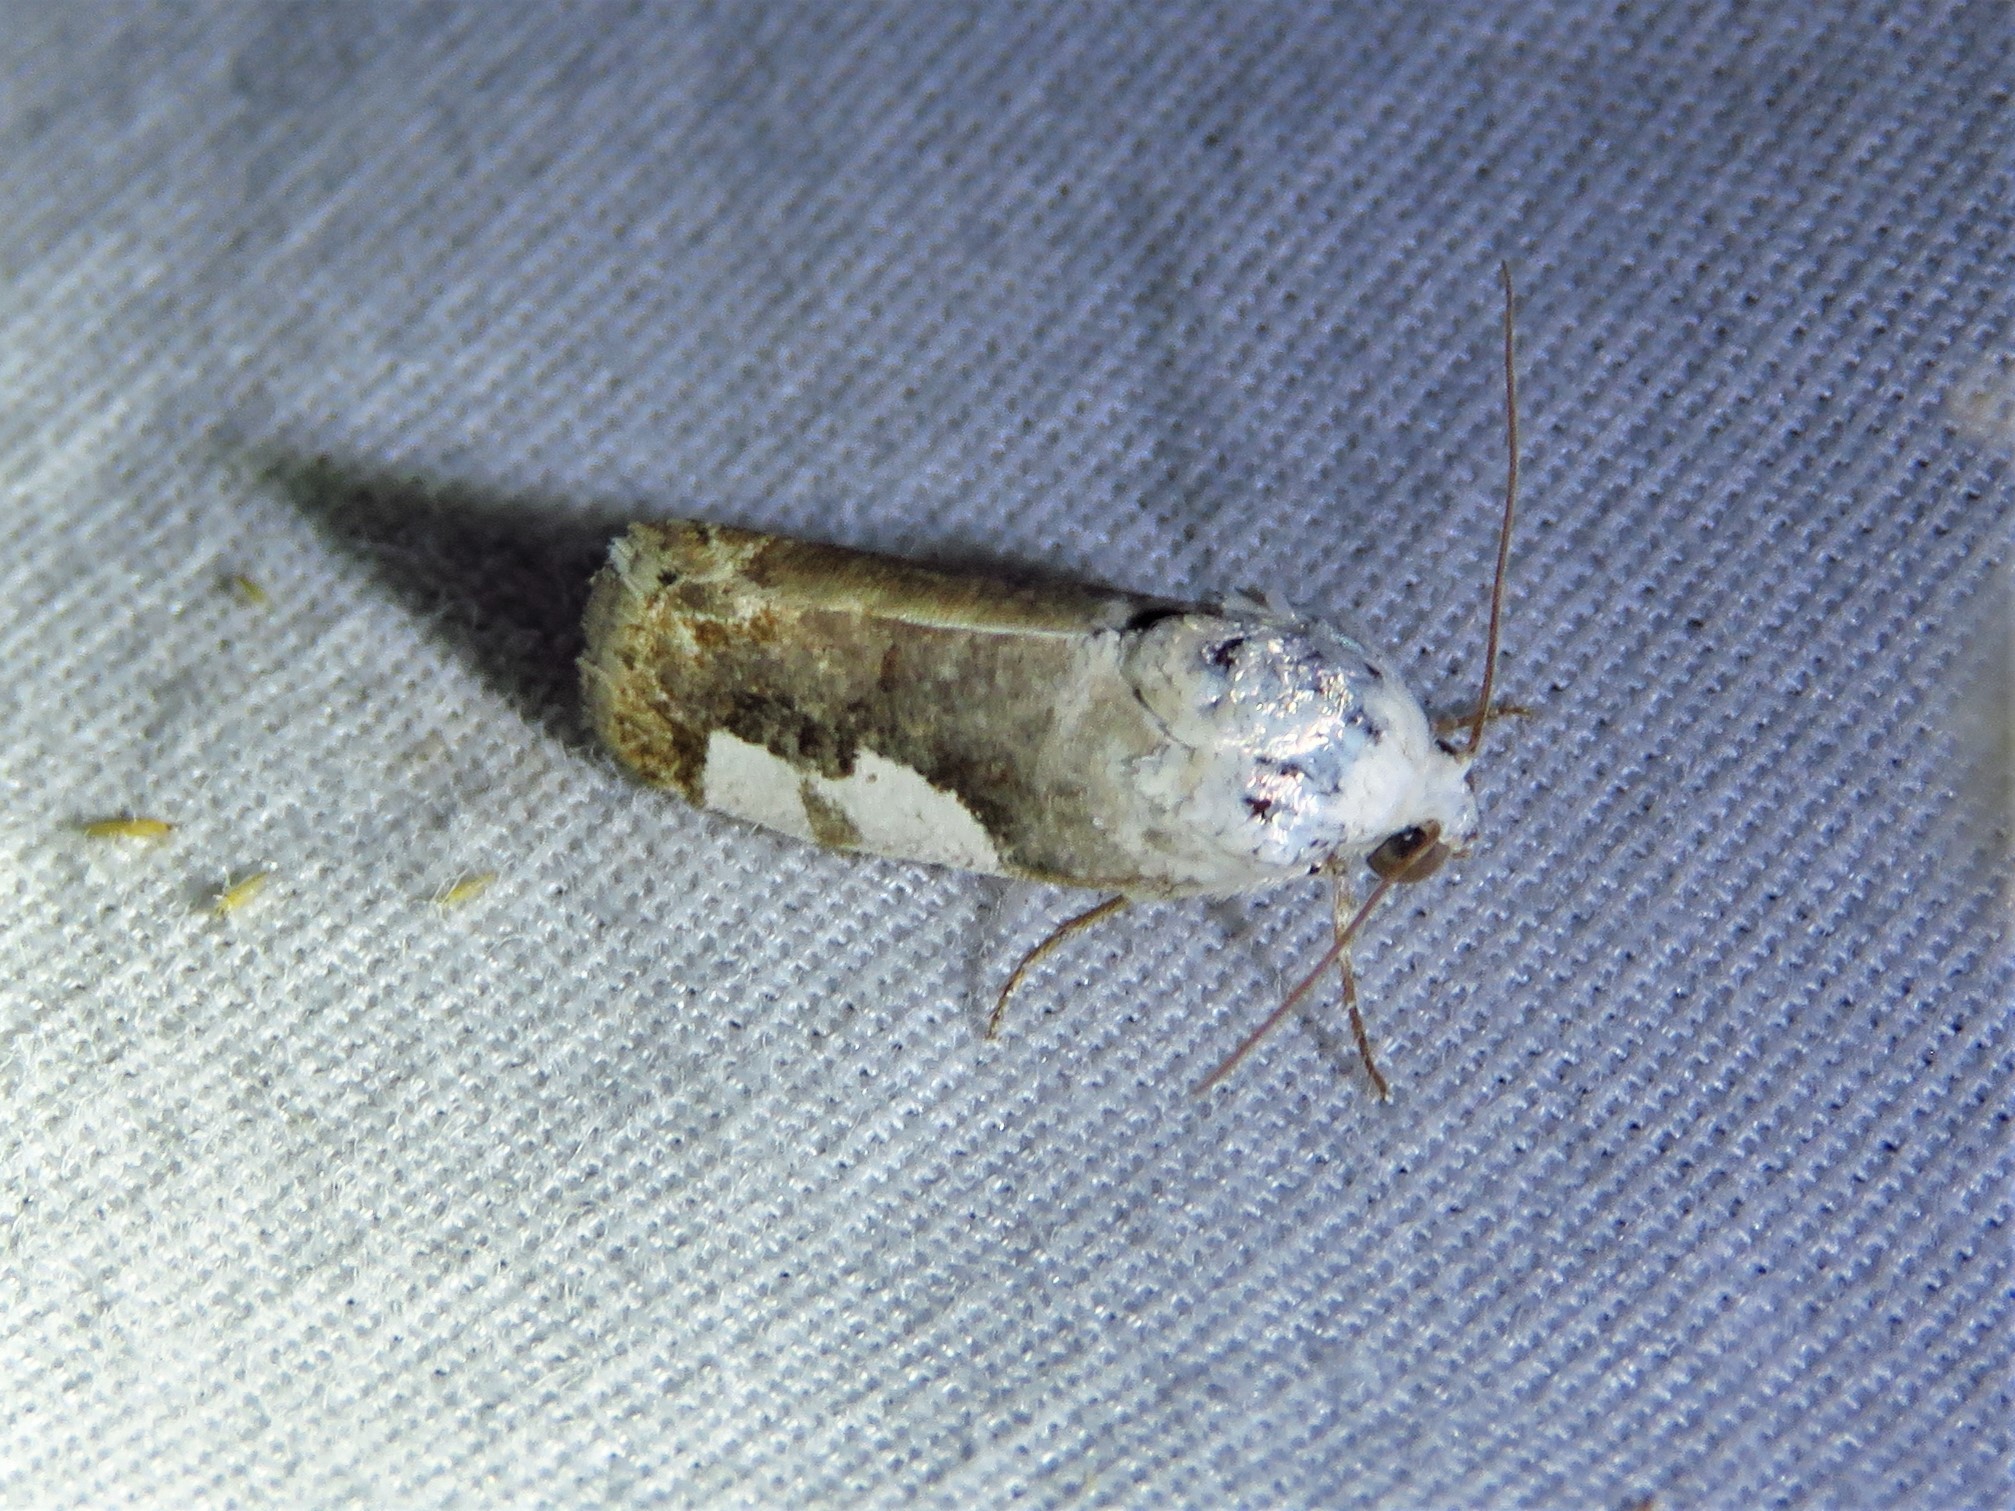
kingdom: Animalia
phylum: Arthropoda
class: Insecta
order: Lepidoptera
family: Noctuidae
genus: Acontia
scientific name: Acontia quadriplaga
